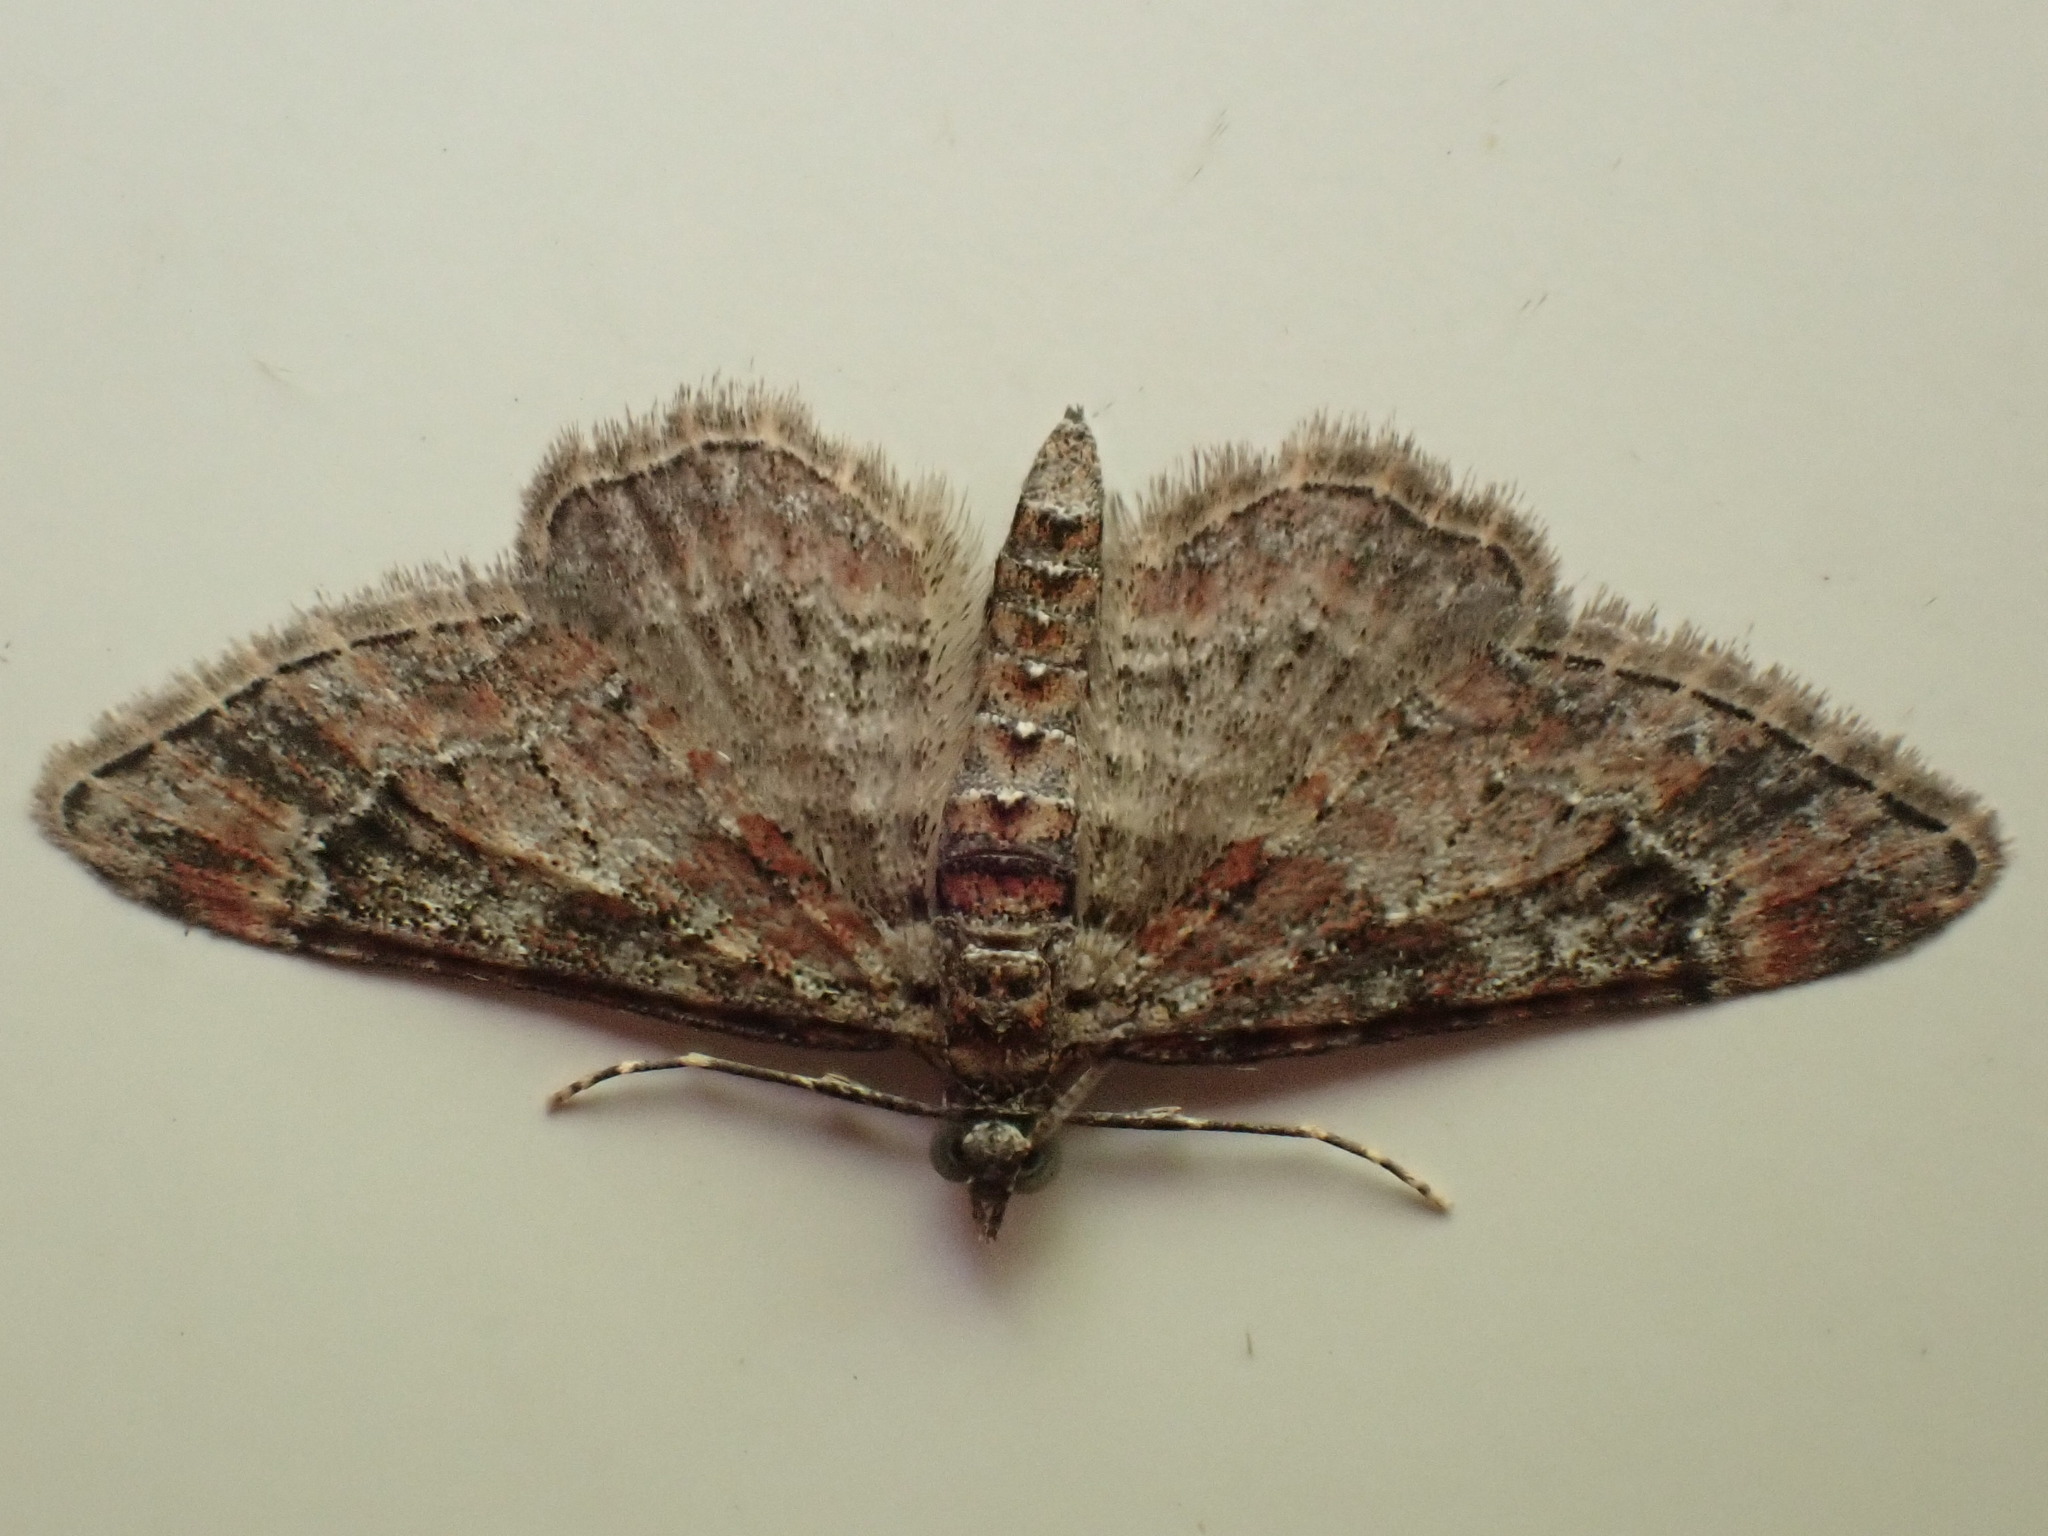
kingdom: Animalia
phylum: Arthropoda
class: Insecta
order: Lepidoptera
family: Geometridae
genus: Gymnoscelis
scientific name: Gymnoscelis rufifasciata
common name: Double-striped pug
